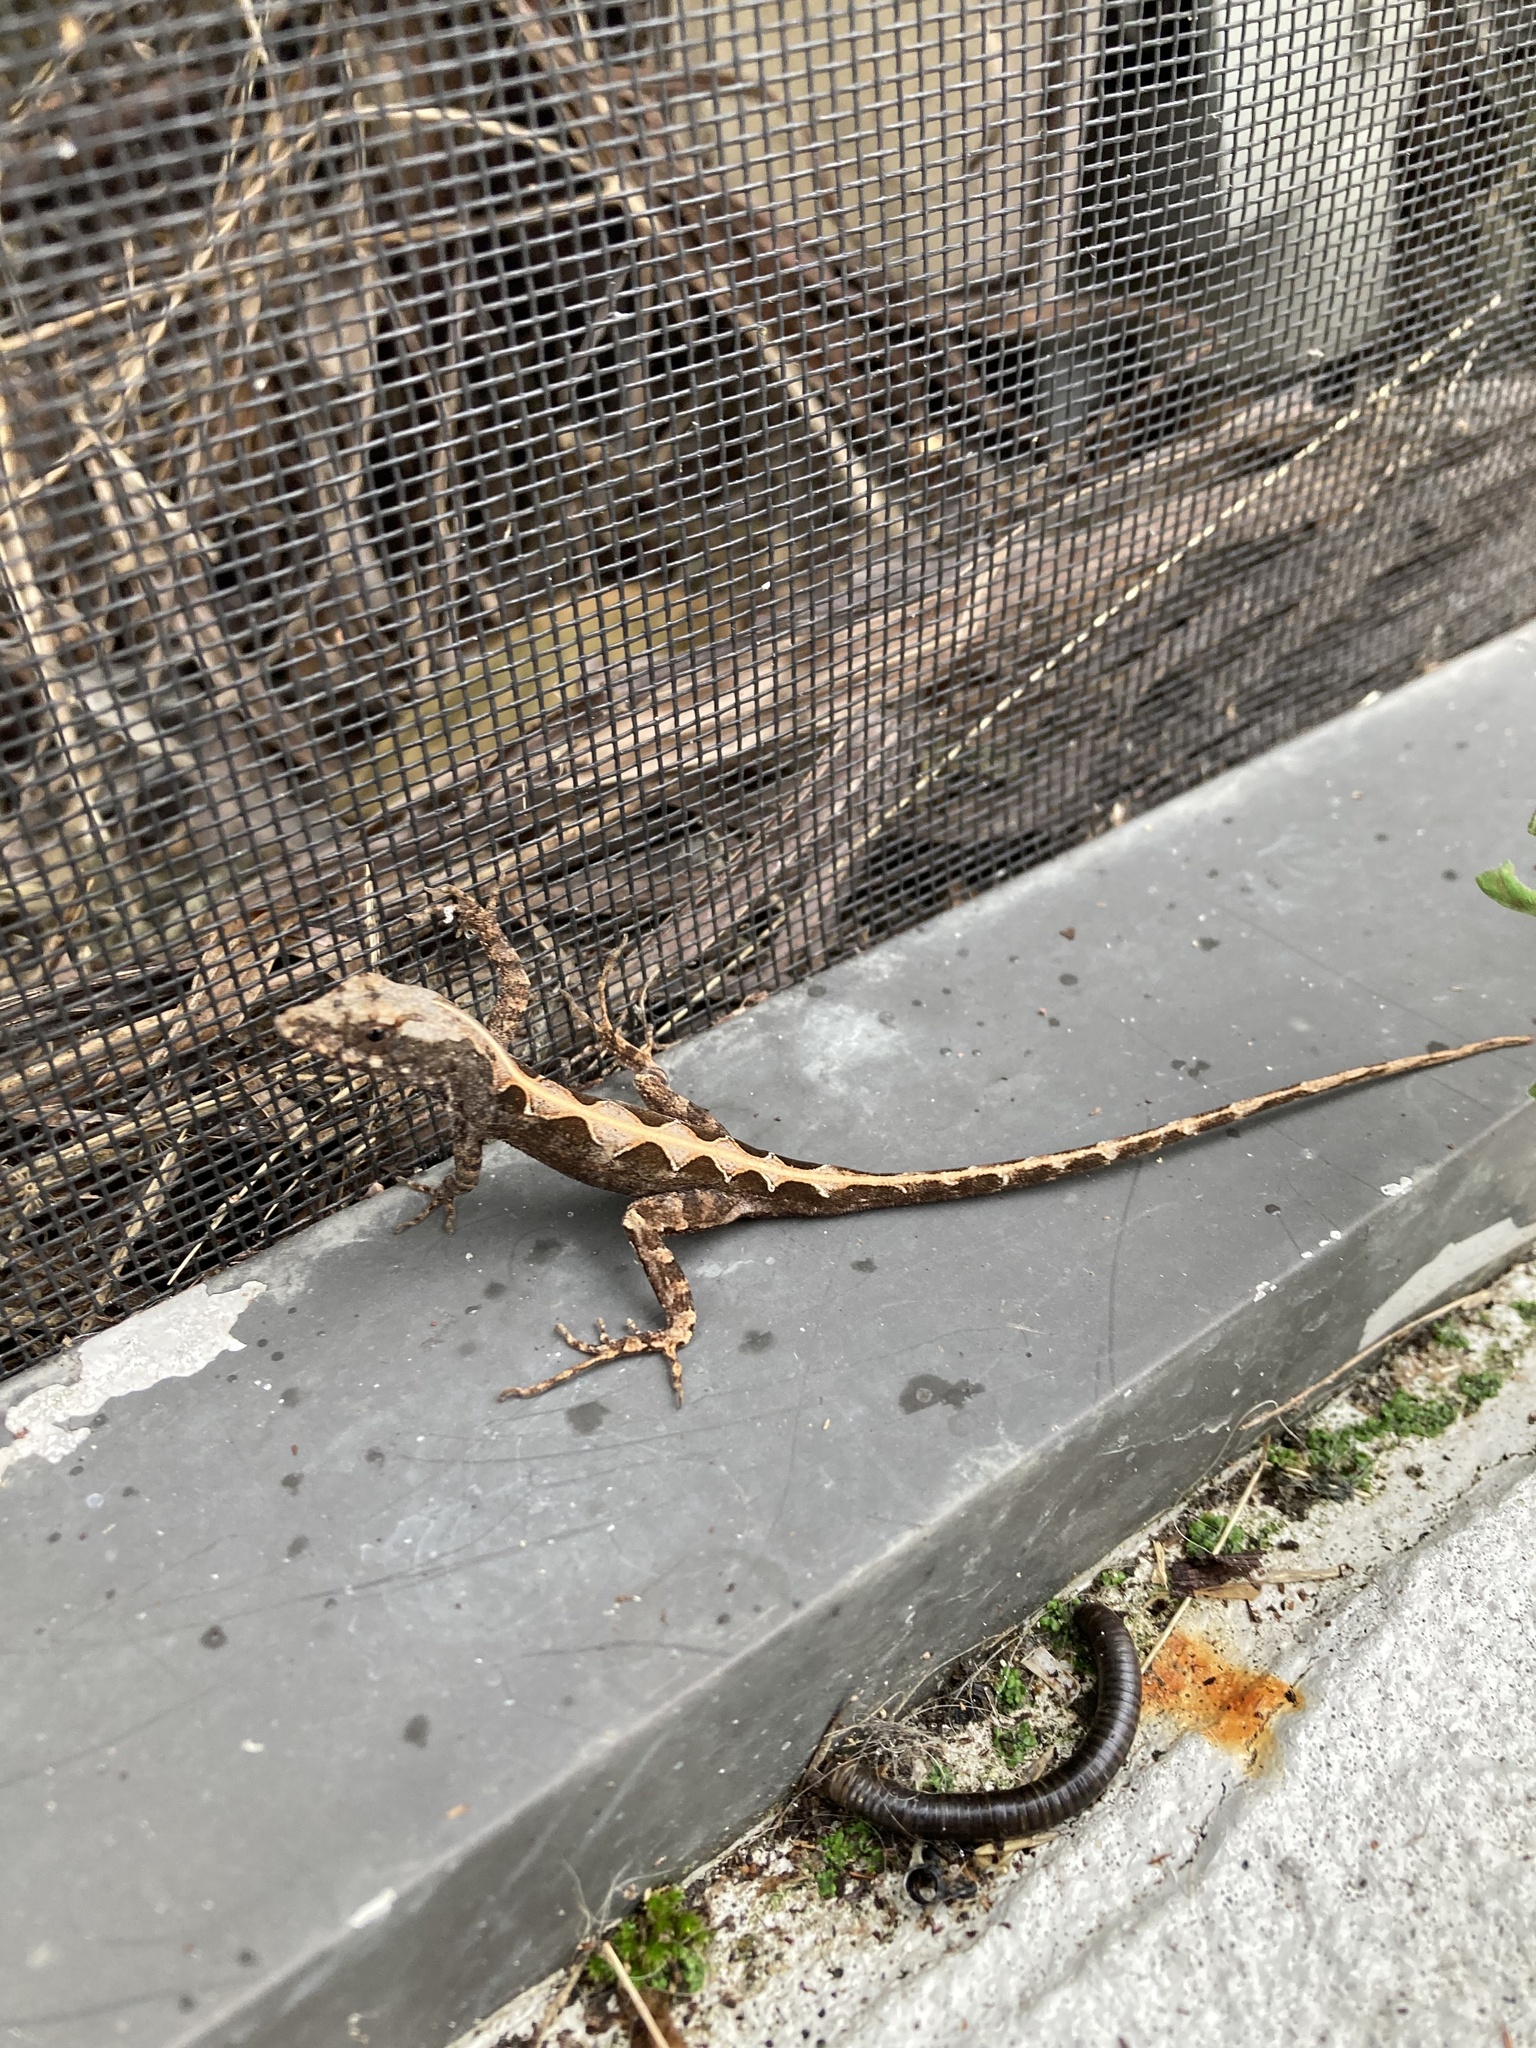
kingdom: Animalia
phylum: Chordata
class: Squamata
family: Dactyloidae
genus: Anolis
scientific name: Anolis sagrei
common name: Brown anole
